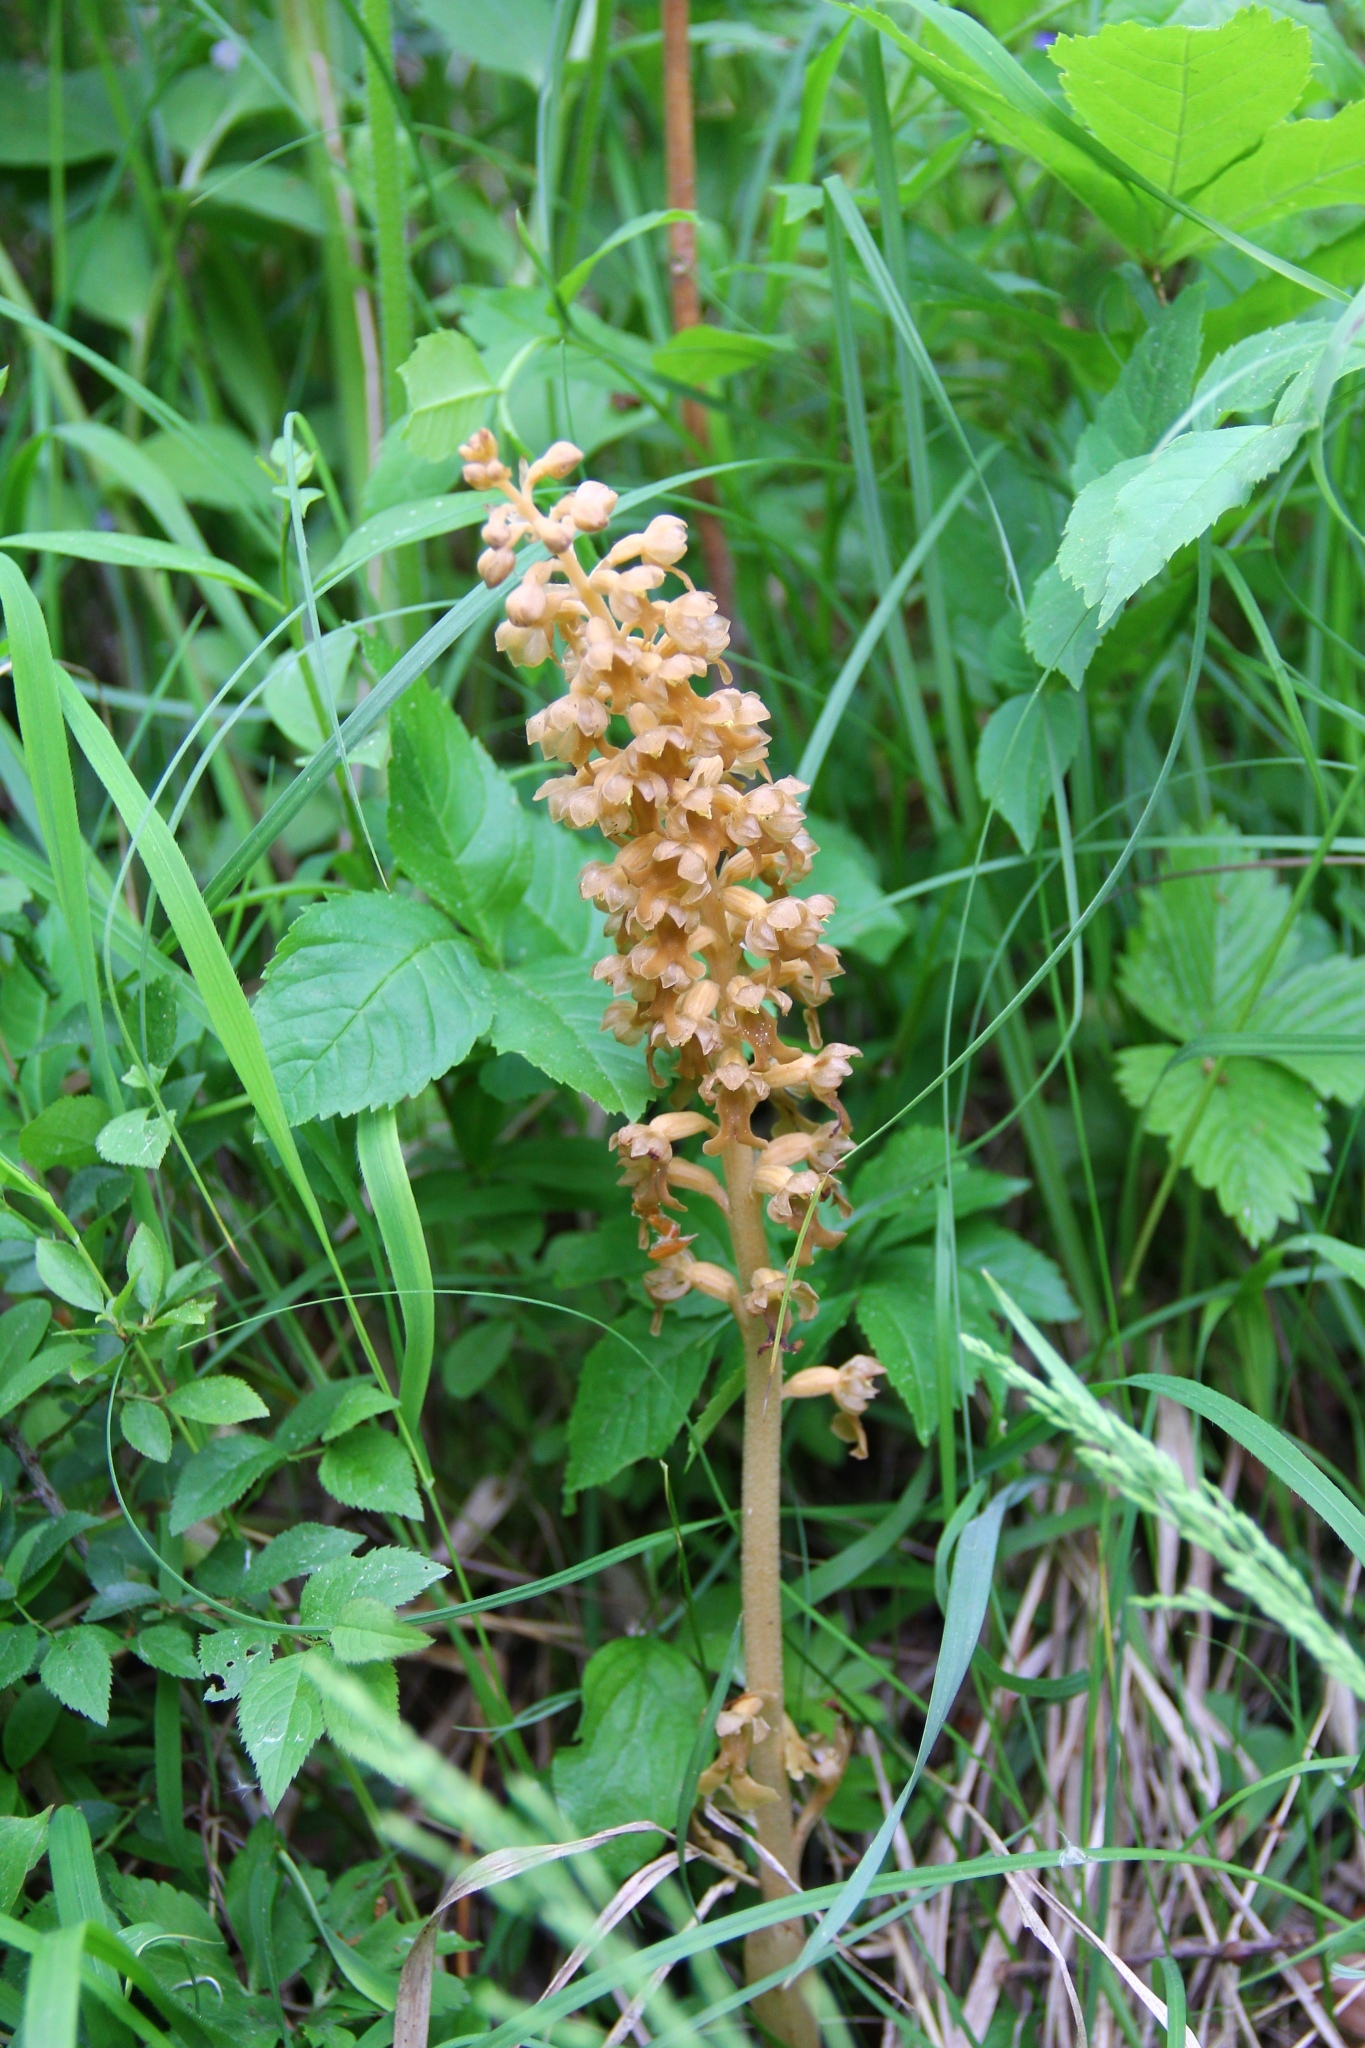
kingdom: Plantae
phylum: Tracheophyta
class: Liliopsida
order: Asparagales
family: Orchidaceae
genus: Neottia
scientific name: Neottia nidus-avis
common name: Bird's-nest orchid
